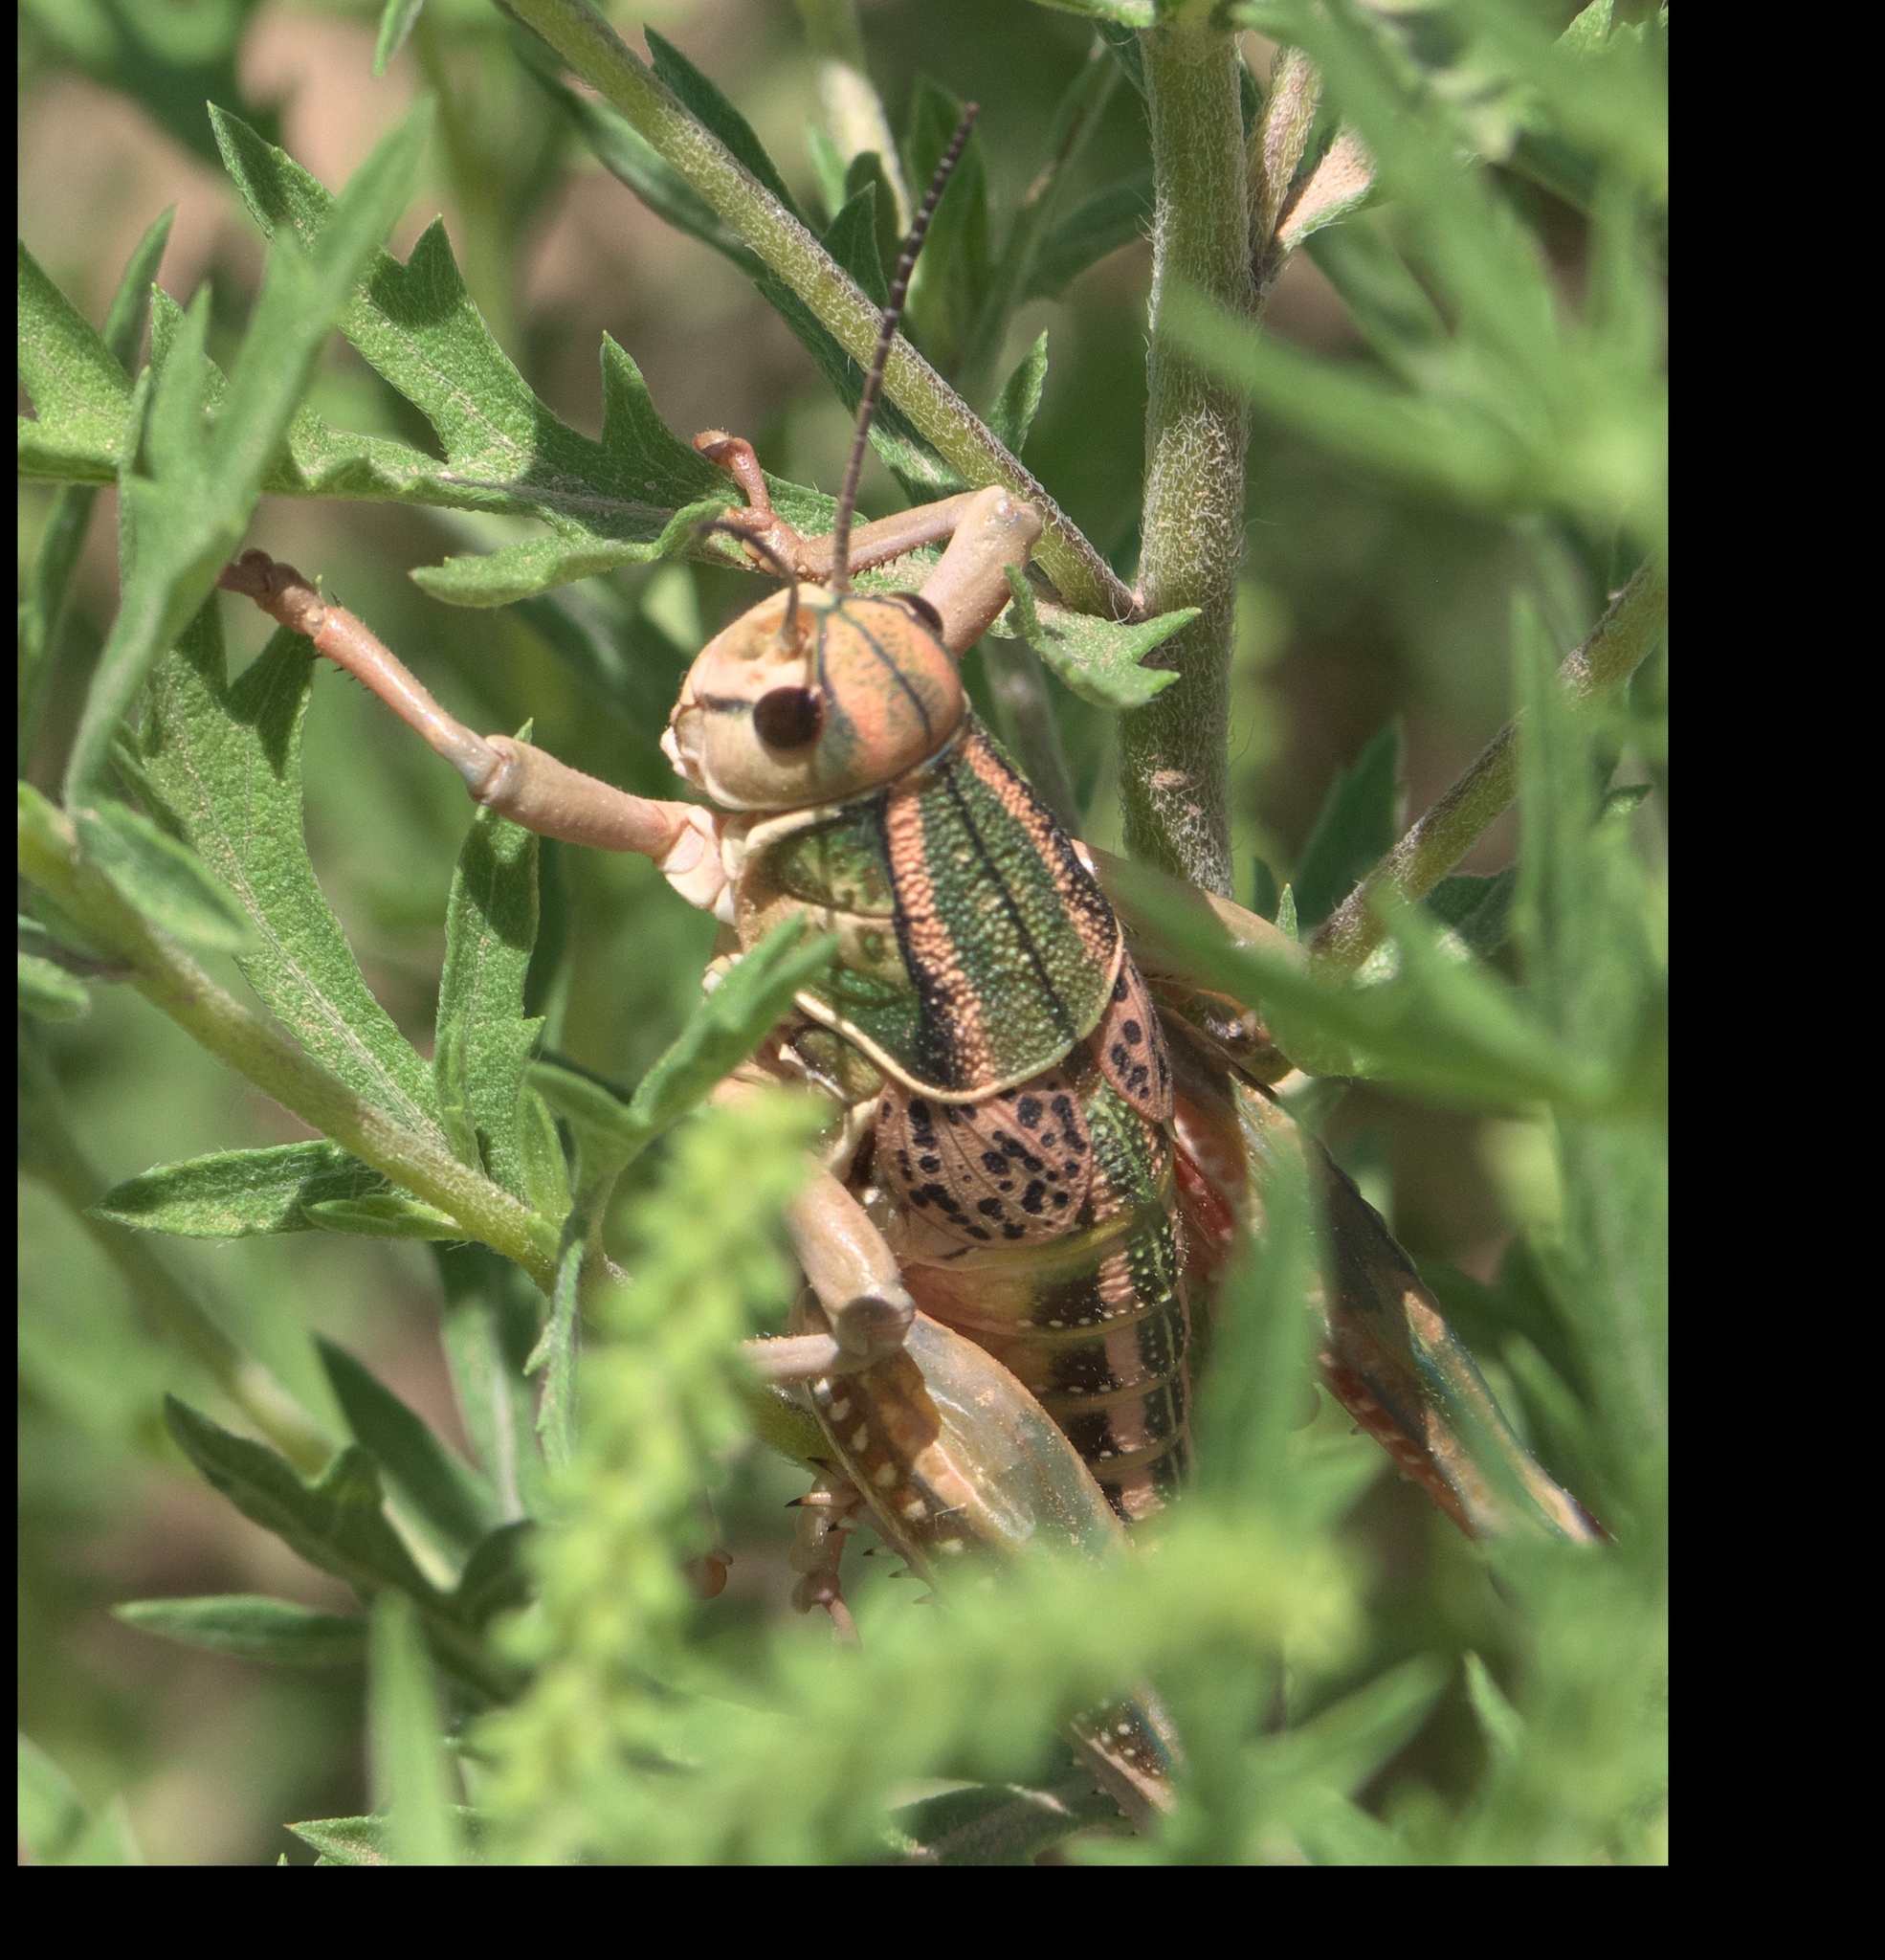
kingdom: Animalia
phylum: Arthropoda
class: Insecta
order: Orthoptera
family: Romaleidae
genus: Brachystola
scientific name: Brachystola magna
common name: Plains lubber grasshopper
